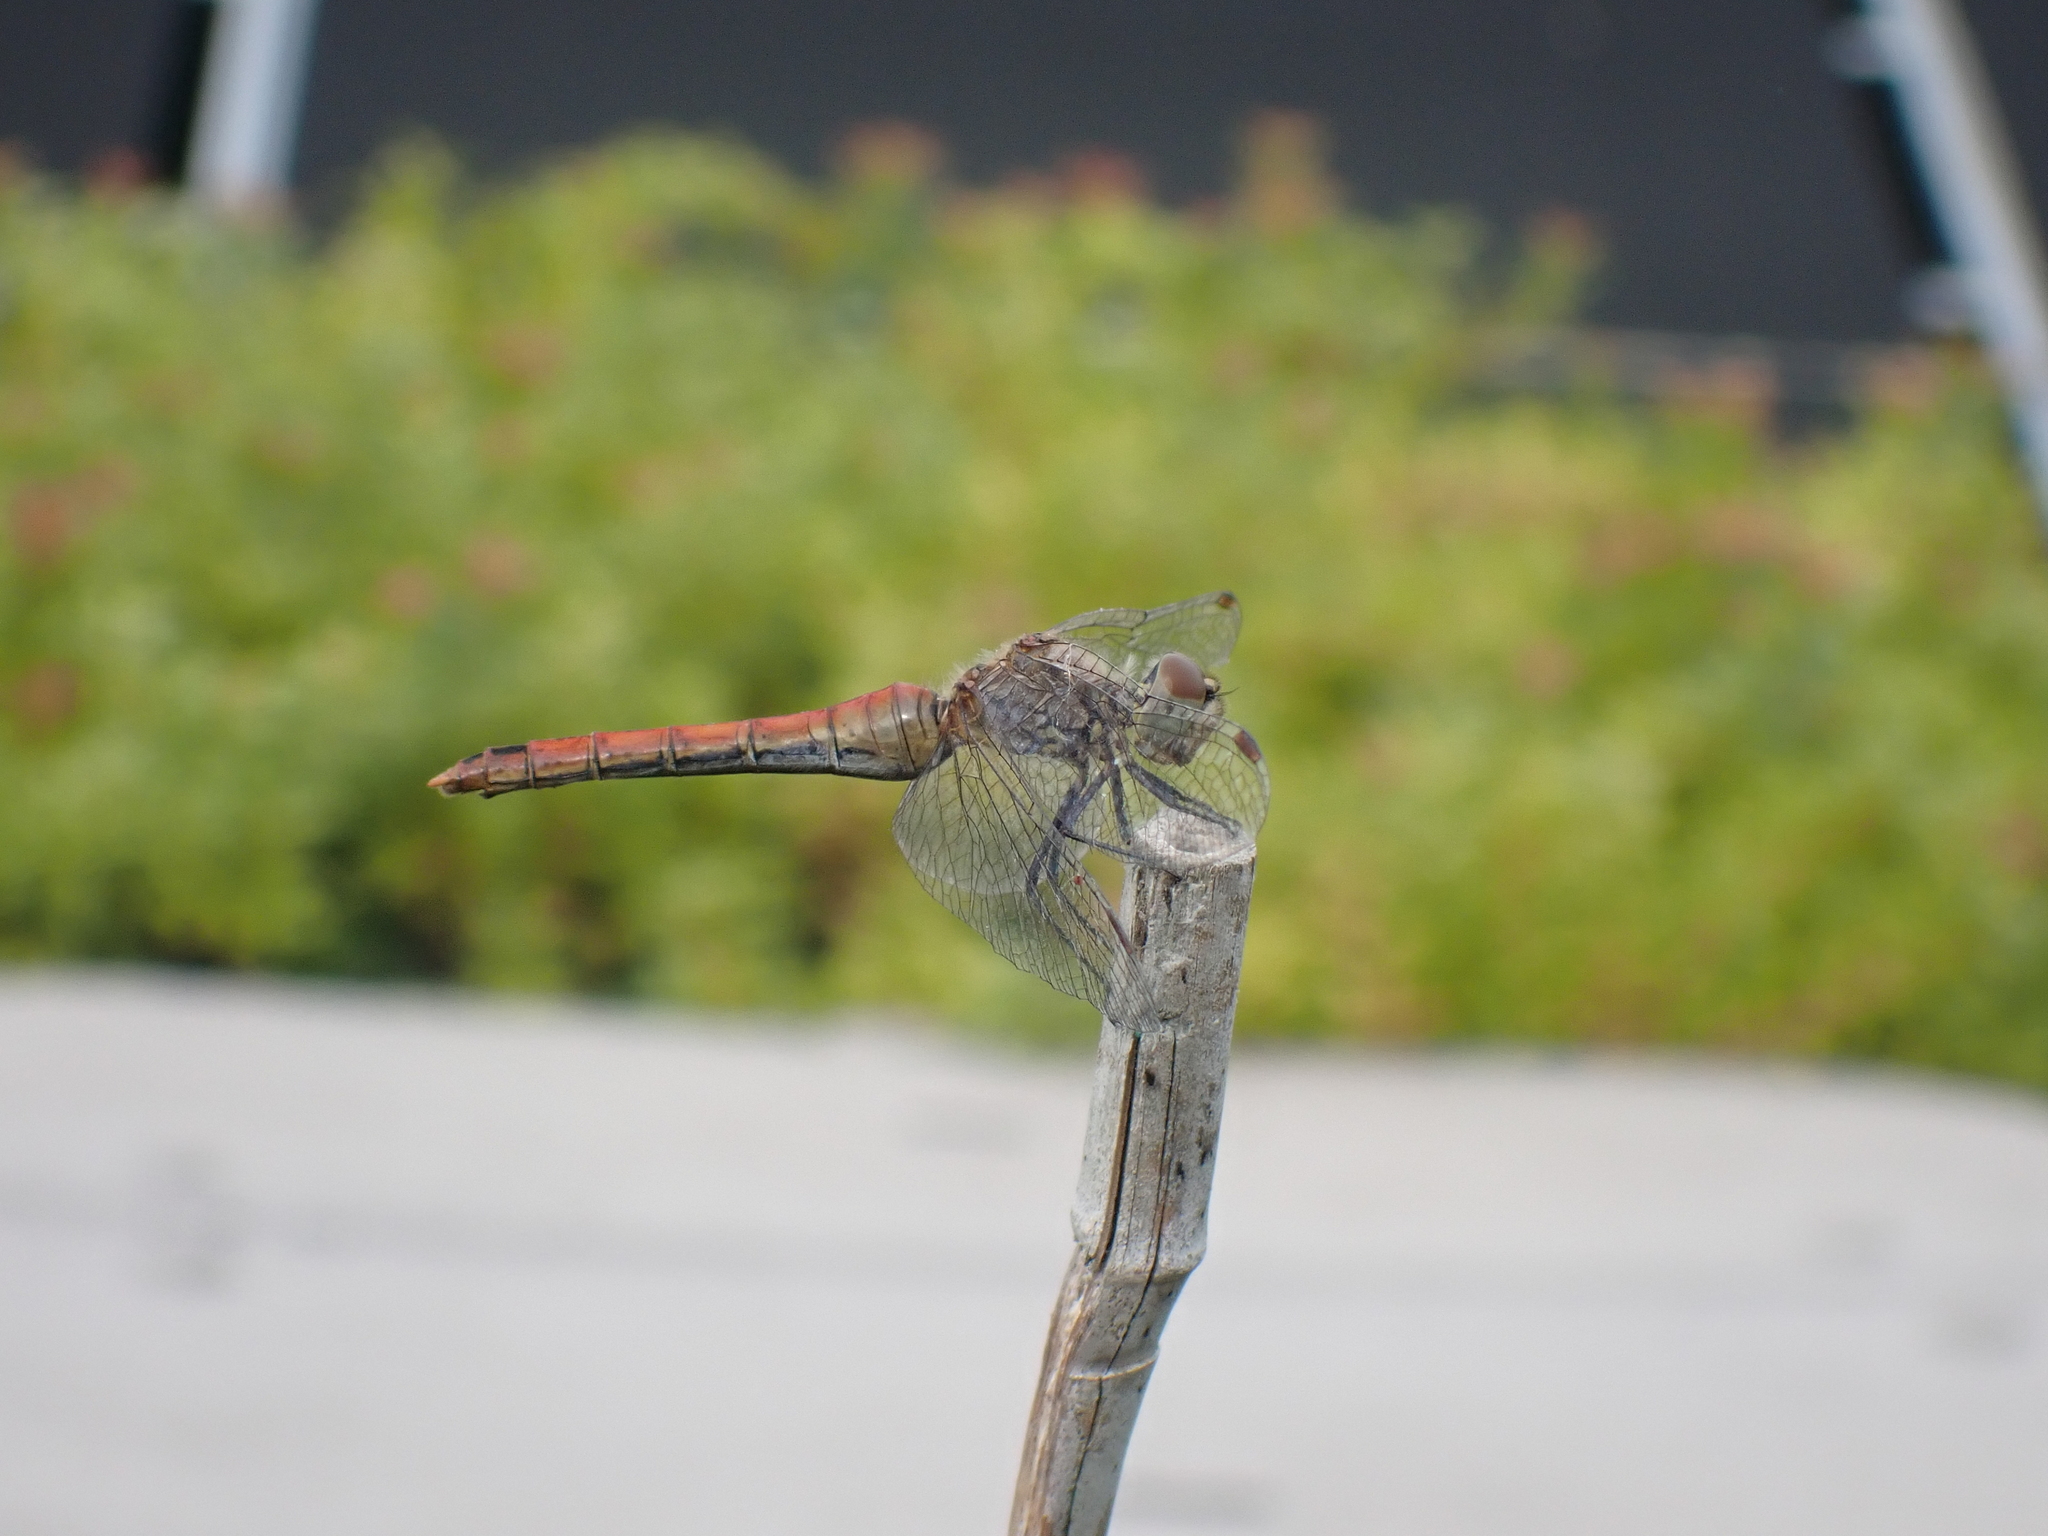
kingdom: Animalia
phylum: Arthropoda
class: Insecta
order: Odonata
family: Libellulidae
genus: Sympetrum
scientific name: Sympetrum sanguineum
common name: Ruddy darter
